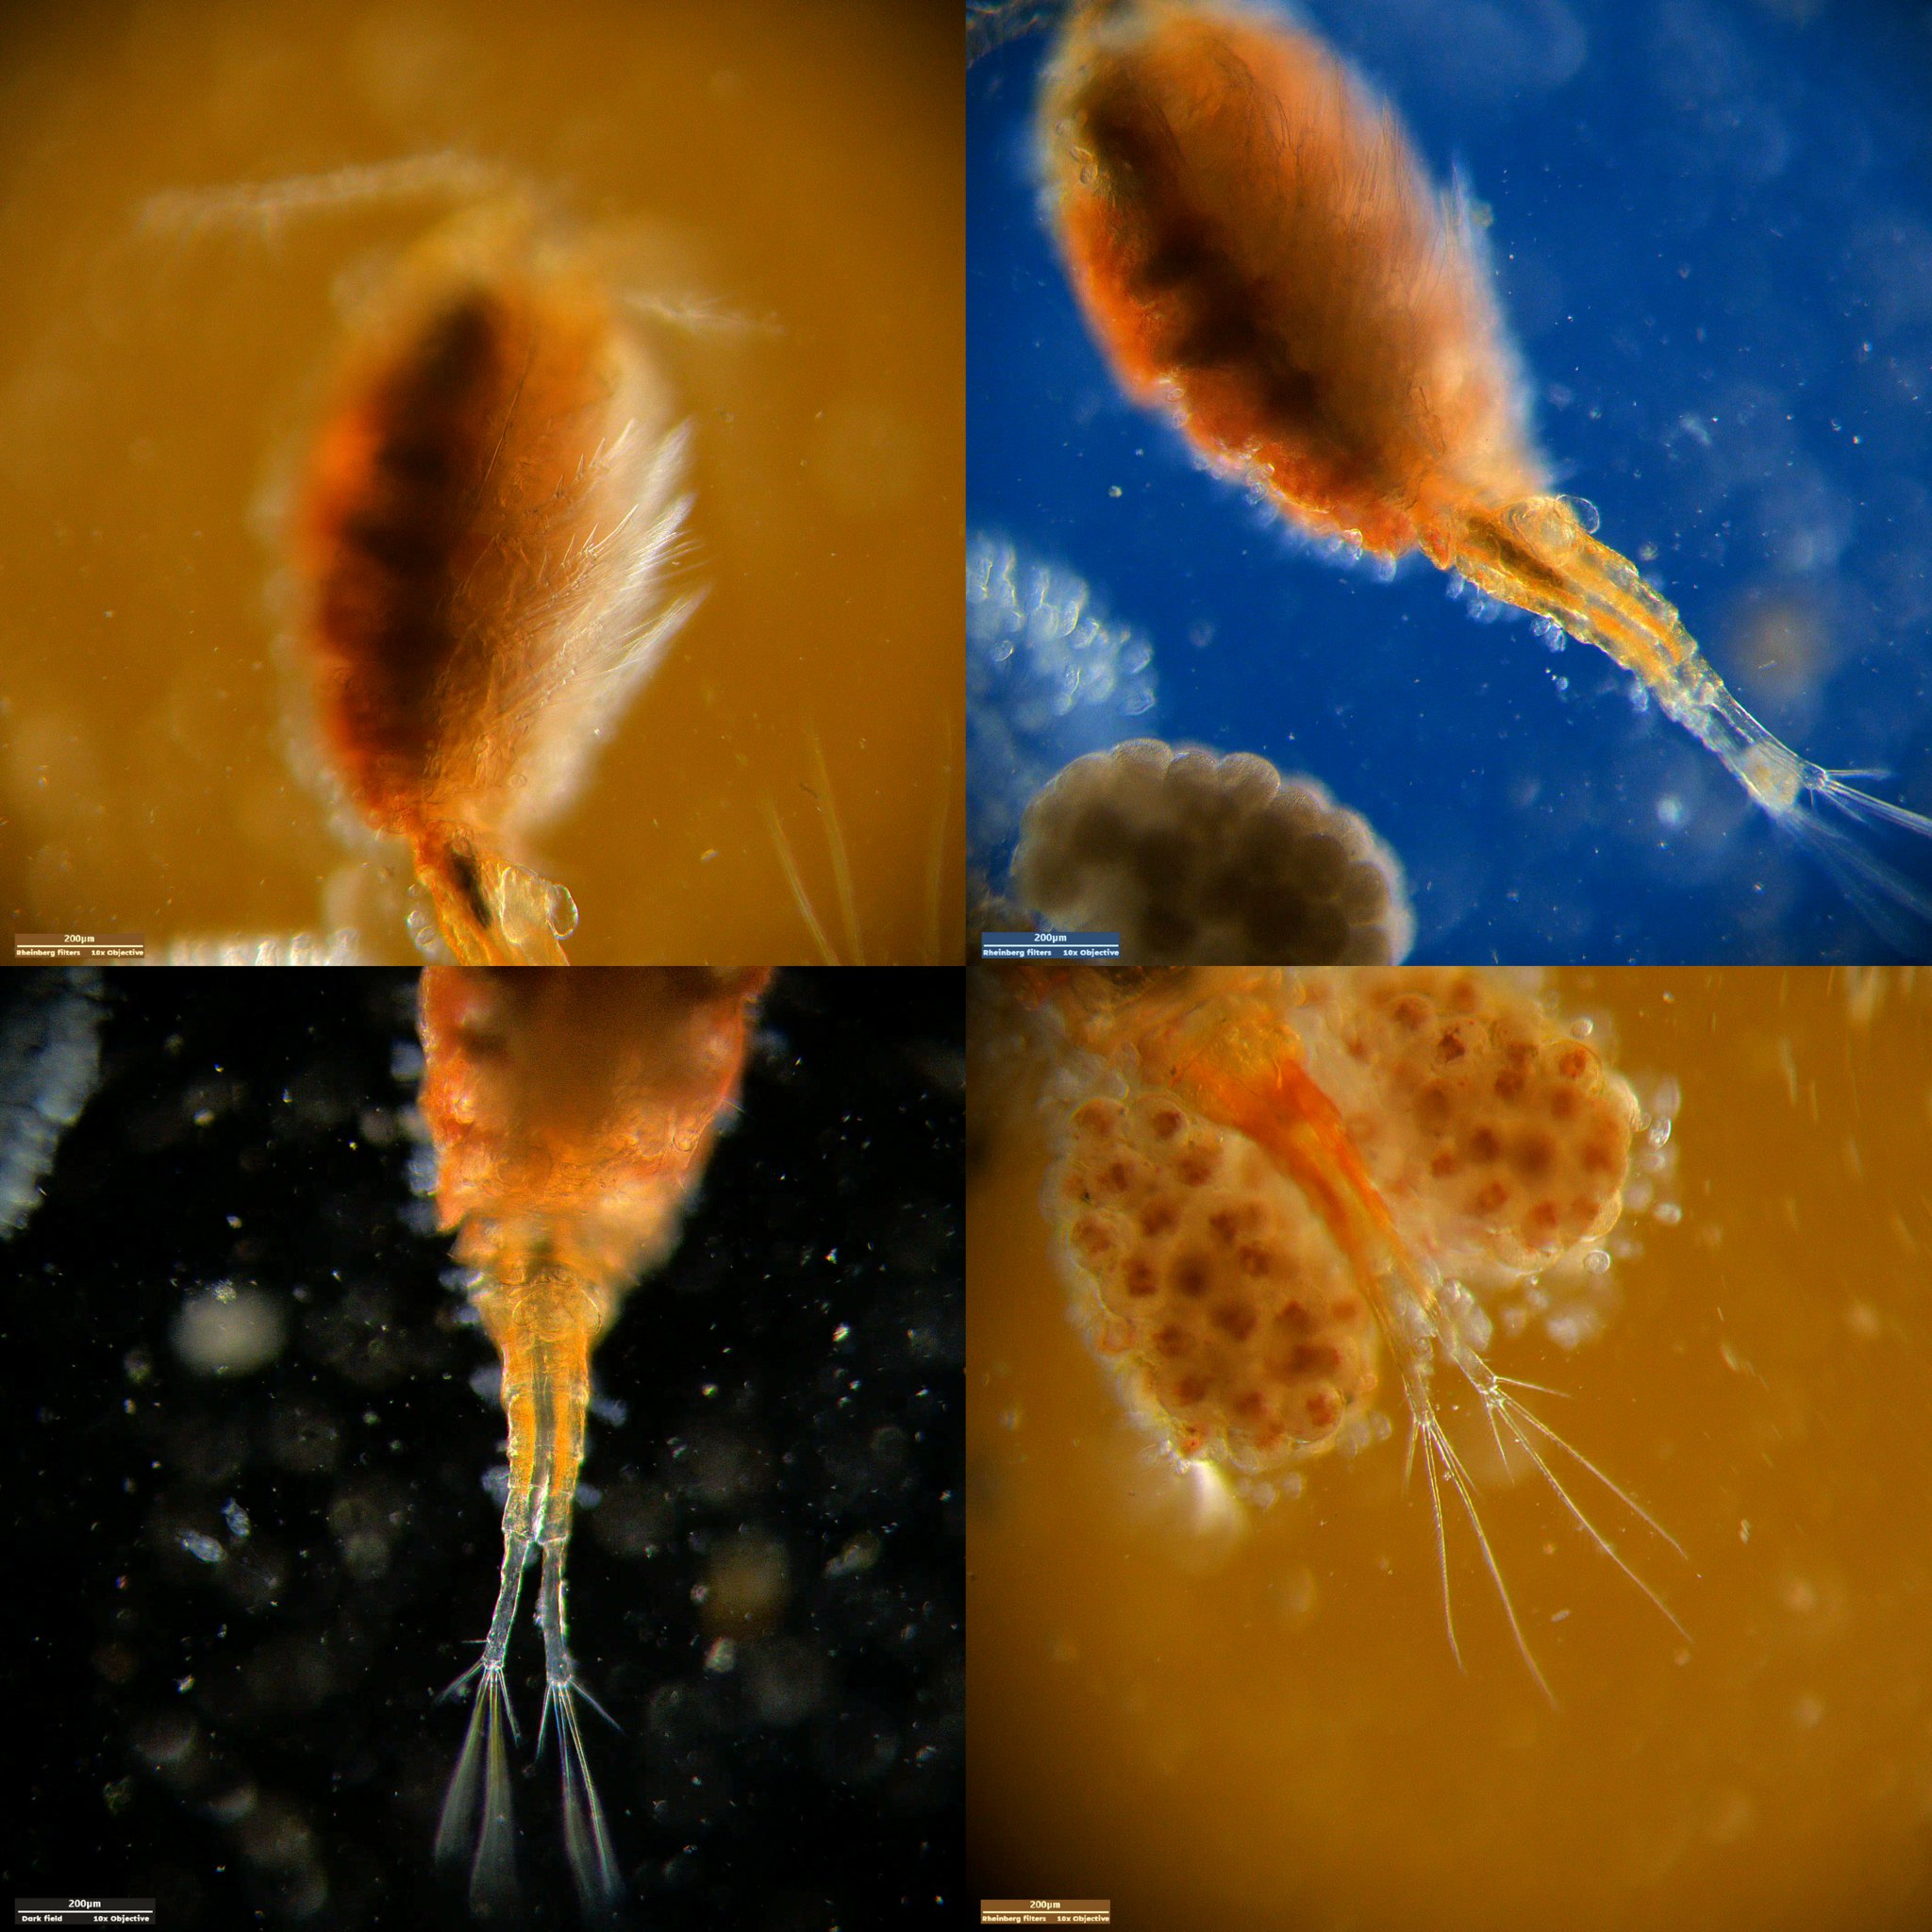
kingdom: Animalia
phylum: Arthropoda
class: Copepoda
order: Cyclopoida
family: Cyclopidae
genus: Cyclops
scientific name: Cyclops furcifer
